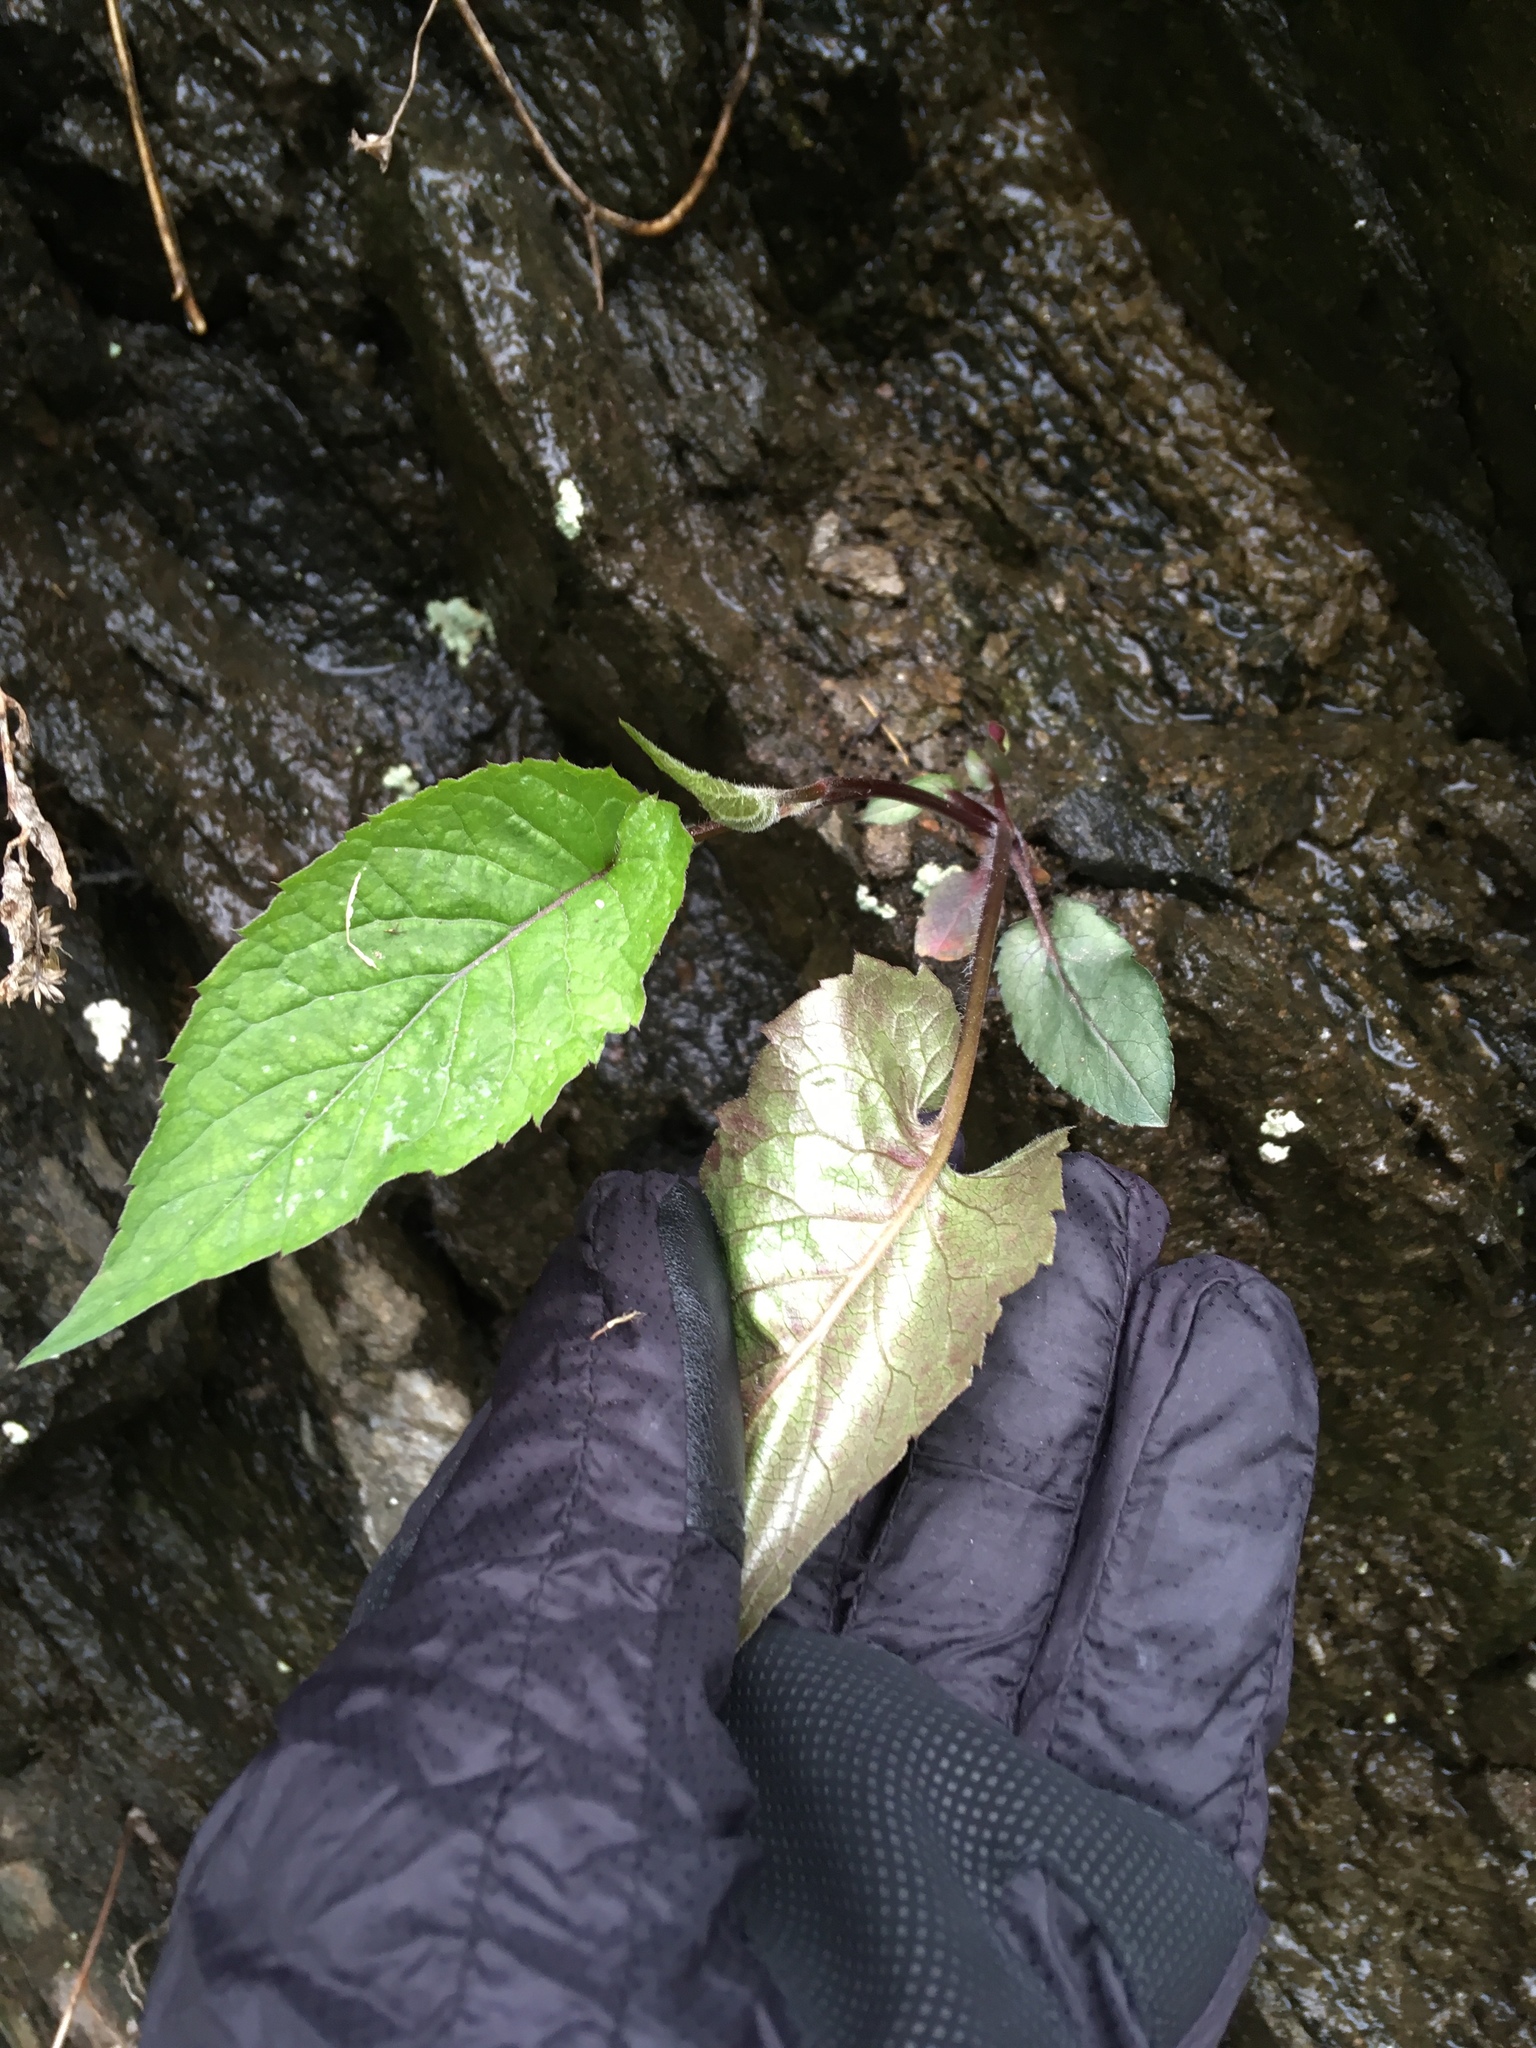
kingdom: Plantae
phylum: Tracheophyta
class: Magnoliopsida
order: Asterales
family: Asteraceae
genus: Eurybia
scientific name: Eurybia divaricata
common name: White wood aster
